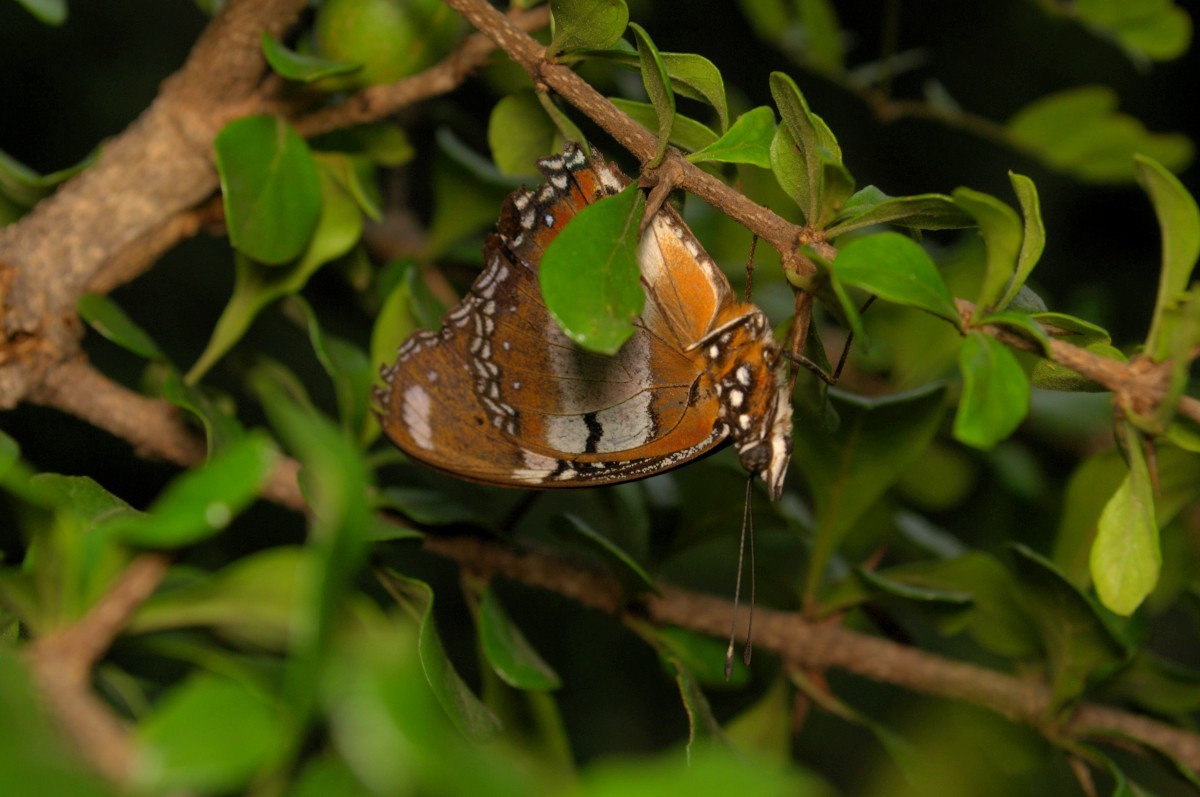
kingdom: Animalia
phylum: Arthropoda
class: Insecta
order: Lepidoptera
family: Nymphalidae
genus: Hypolimnas
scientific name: Hypolimnas misippus
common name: False plain tiger
